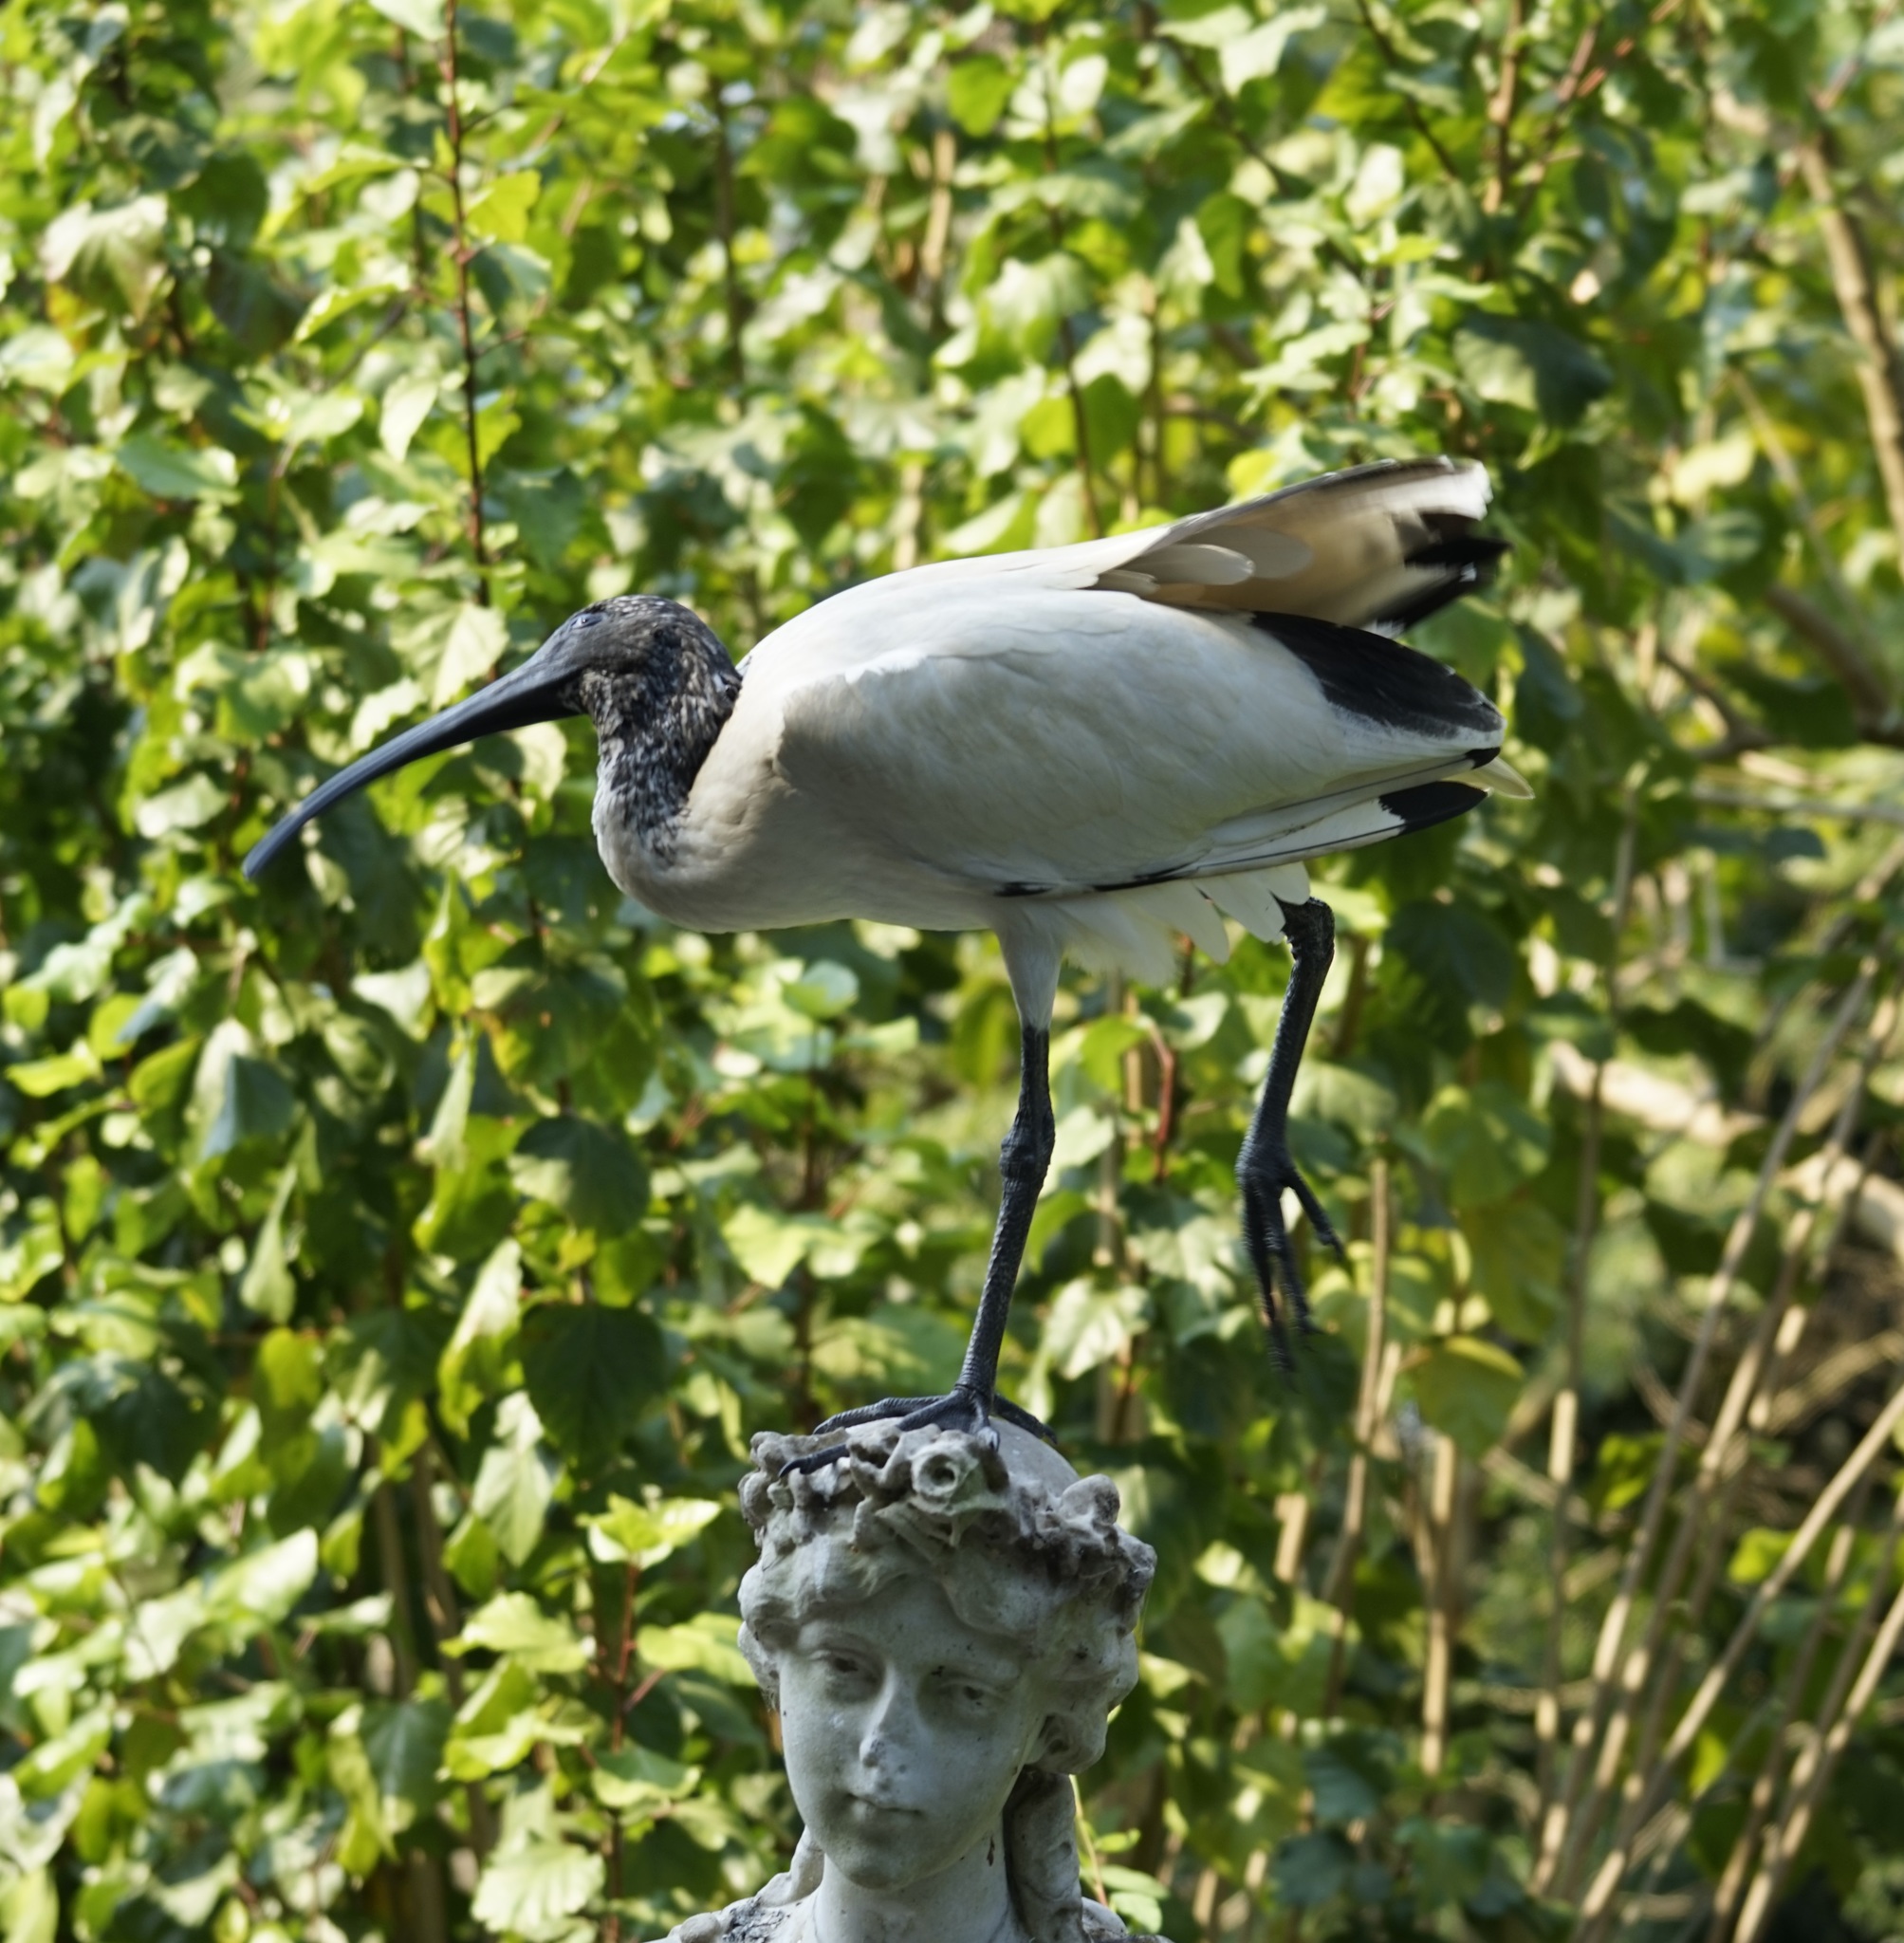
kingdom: Animalia
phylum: Chordata
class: Aves
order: Pelecaniformes
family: Threskiornithidae
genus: Threskiornis
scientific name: Threskiornis molucca
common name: Australian white ibis
